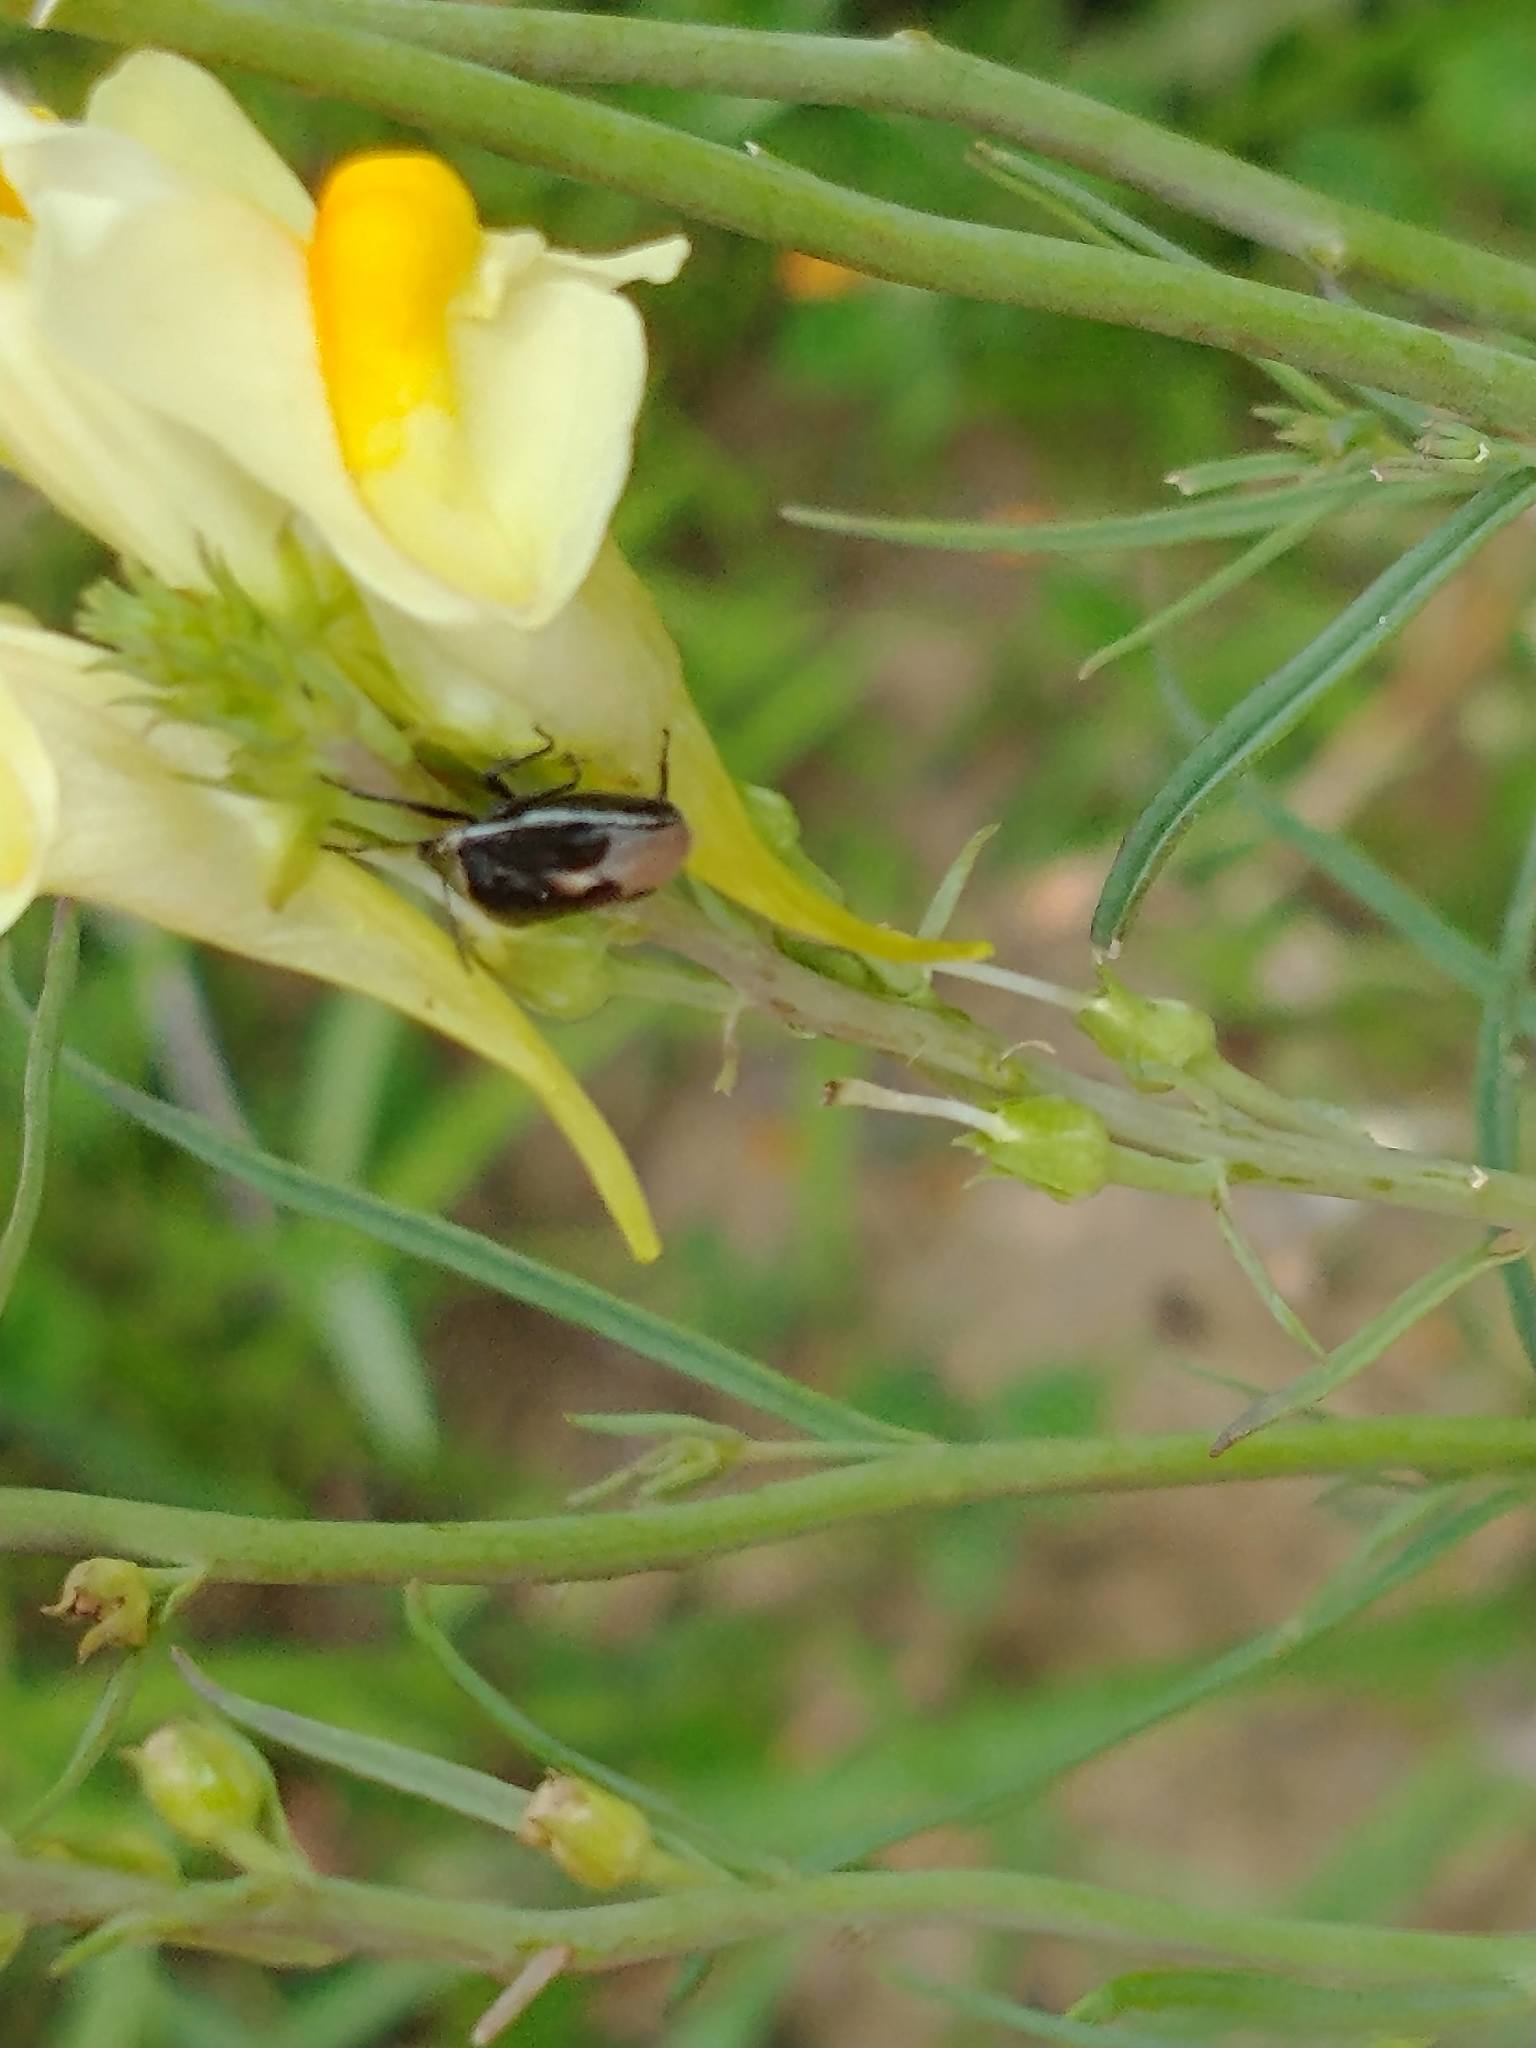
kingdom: Animalia
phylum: Arthropoda
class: Insecta
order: Hemiptera
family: Pentatomidae
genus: Cosmopepla
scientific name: Cosmopepla lintneriana
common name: Twice-stabbed stink bug
